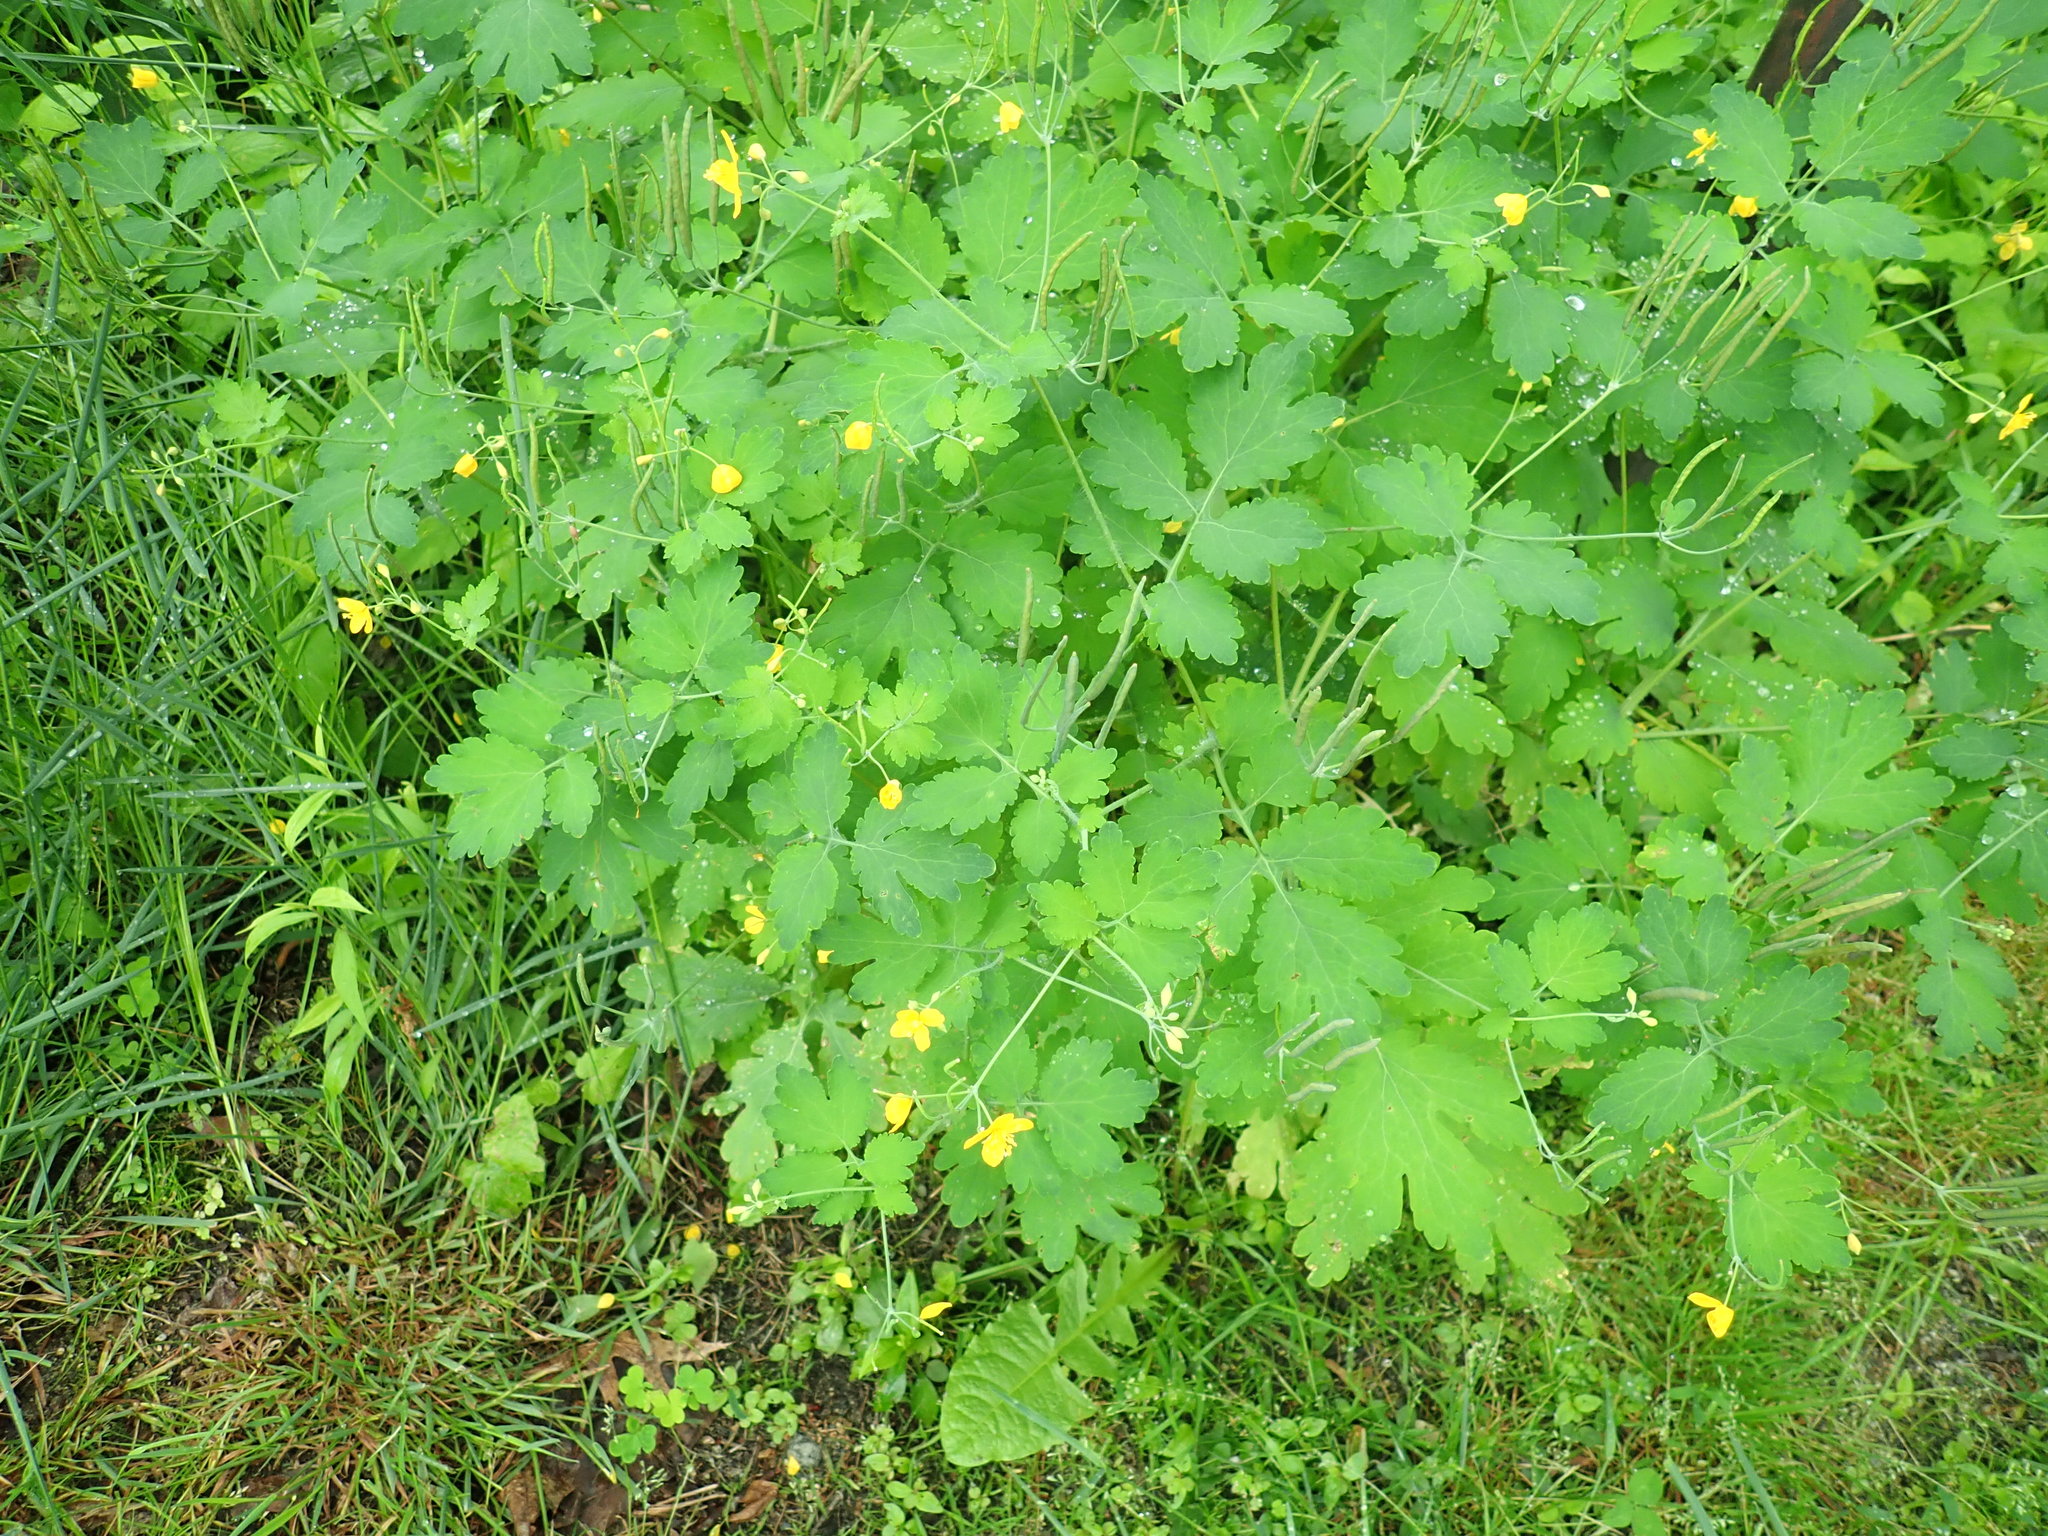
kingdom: Plantae
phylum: Tracheophyta
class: Magnoliopsida
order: Ranunculales
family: Papaveraceae
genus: Chelidonium
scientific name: Chelidonium majus
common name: Greater celandine
